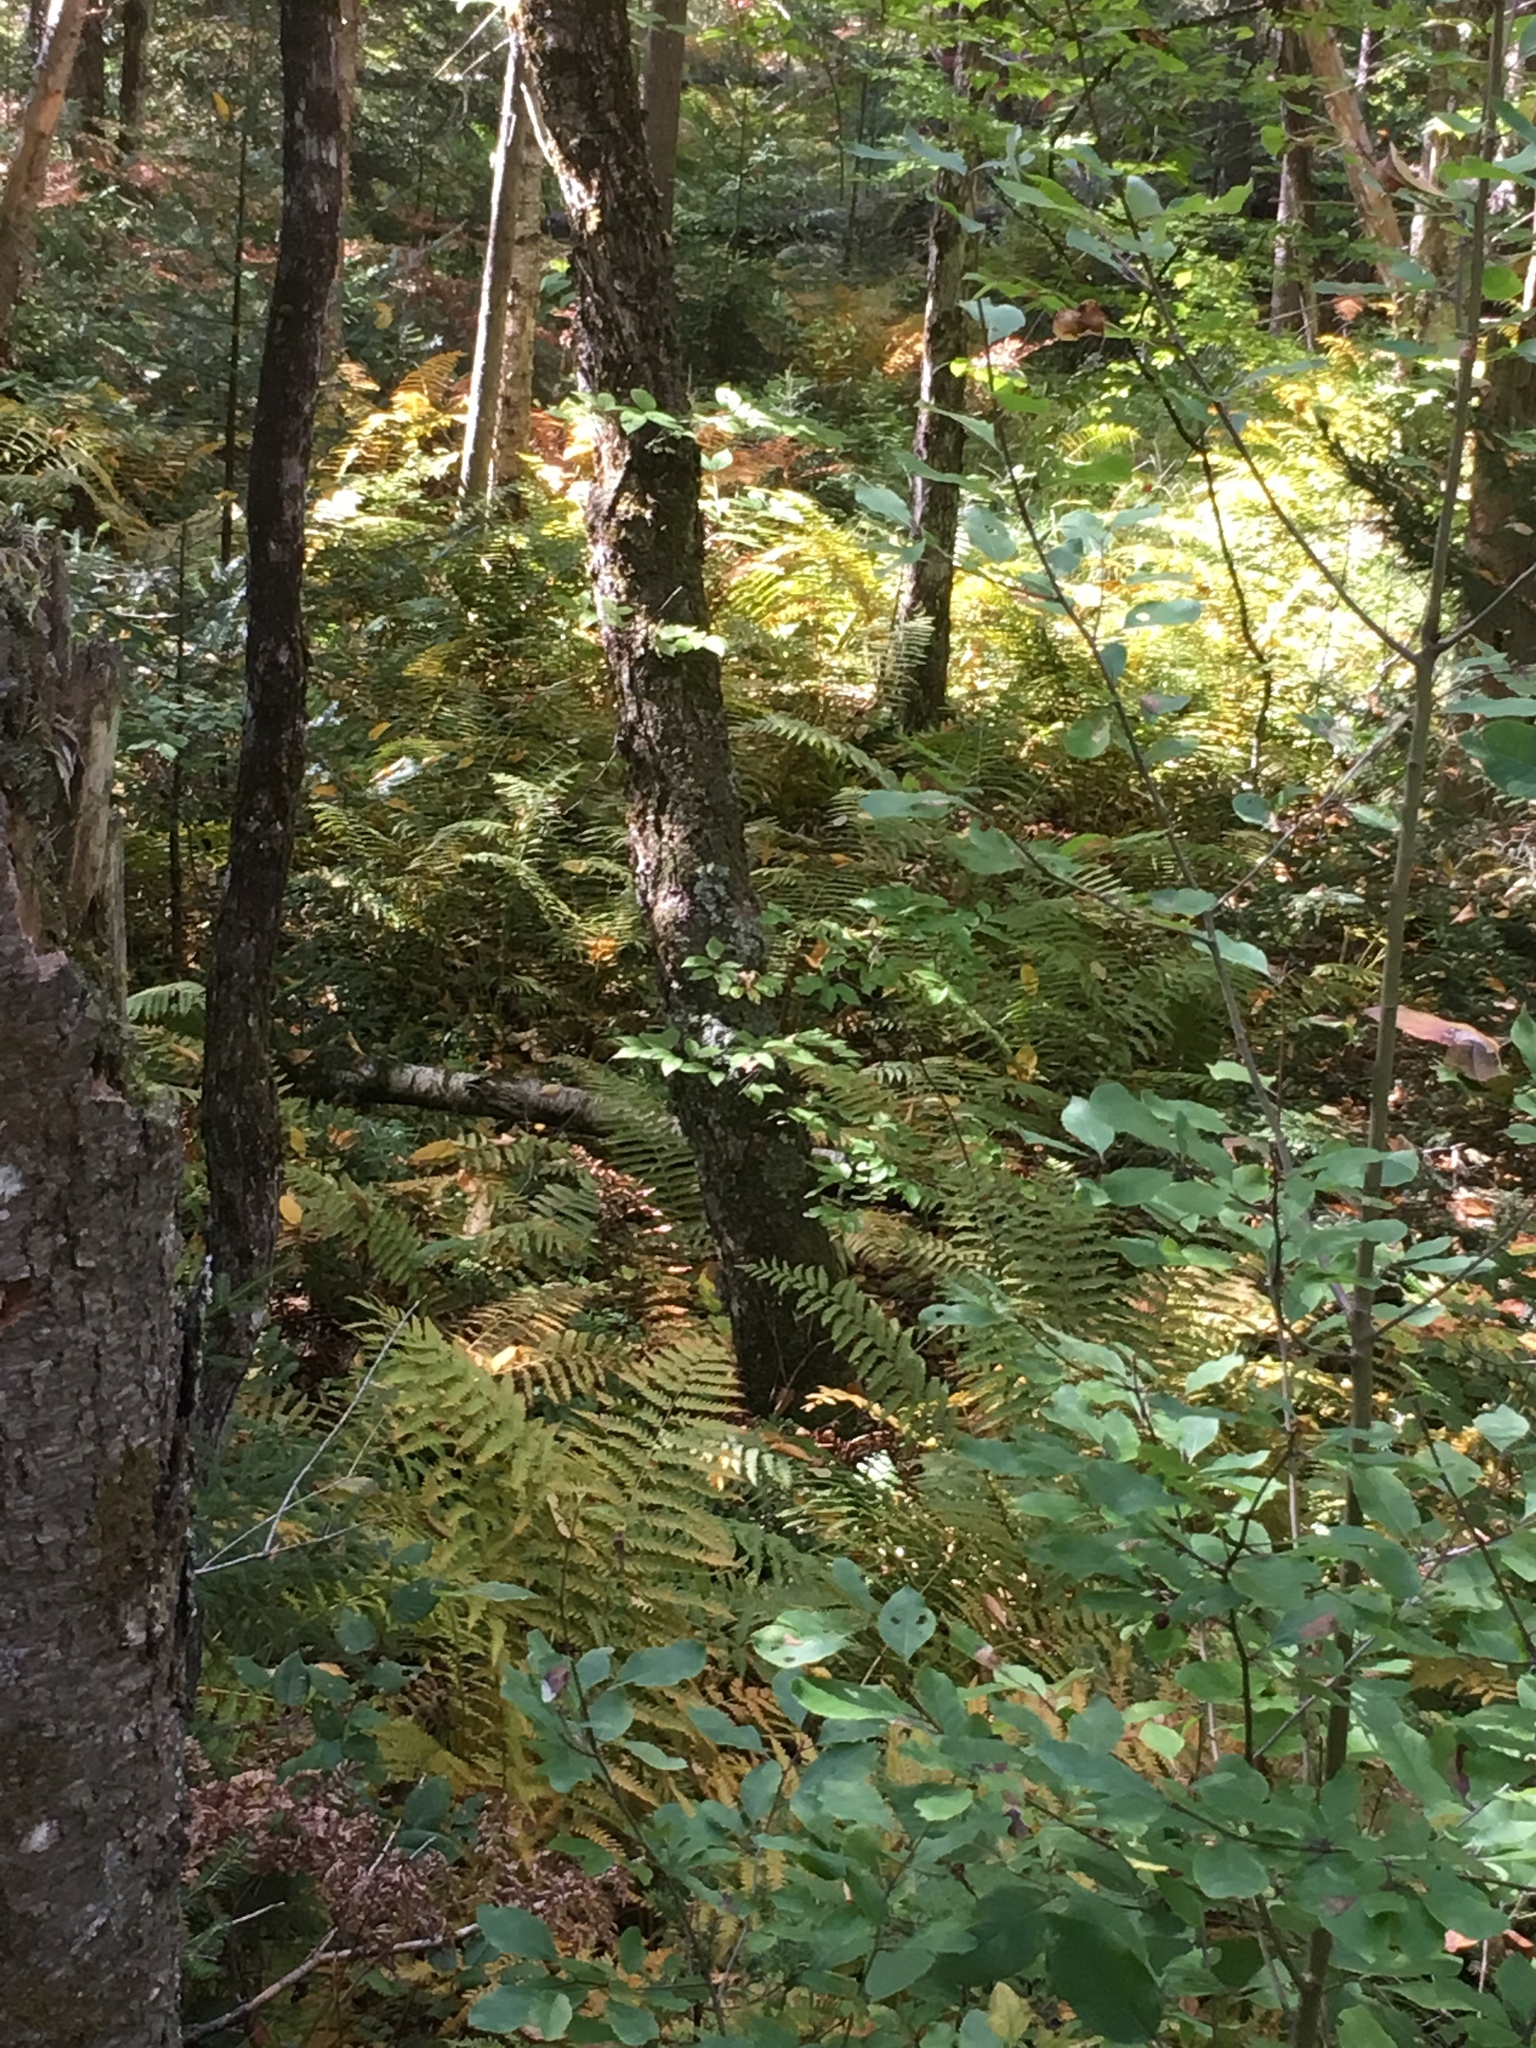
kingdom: Plantae
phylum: Tracheophyta
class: Polypodiopsida
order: Osmundales
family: Osmundaceae
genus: Osmundastrum
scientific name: Osmundastrum cinnamomeum
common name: Cinnamon fern
